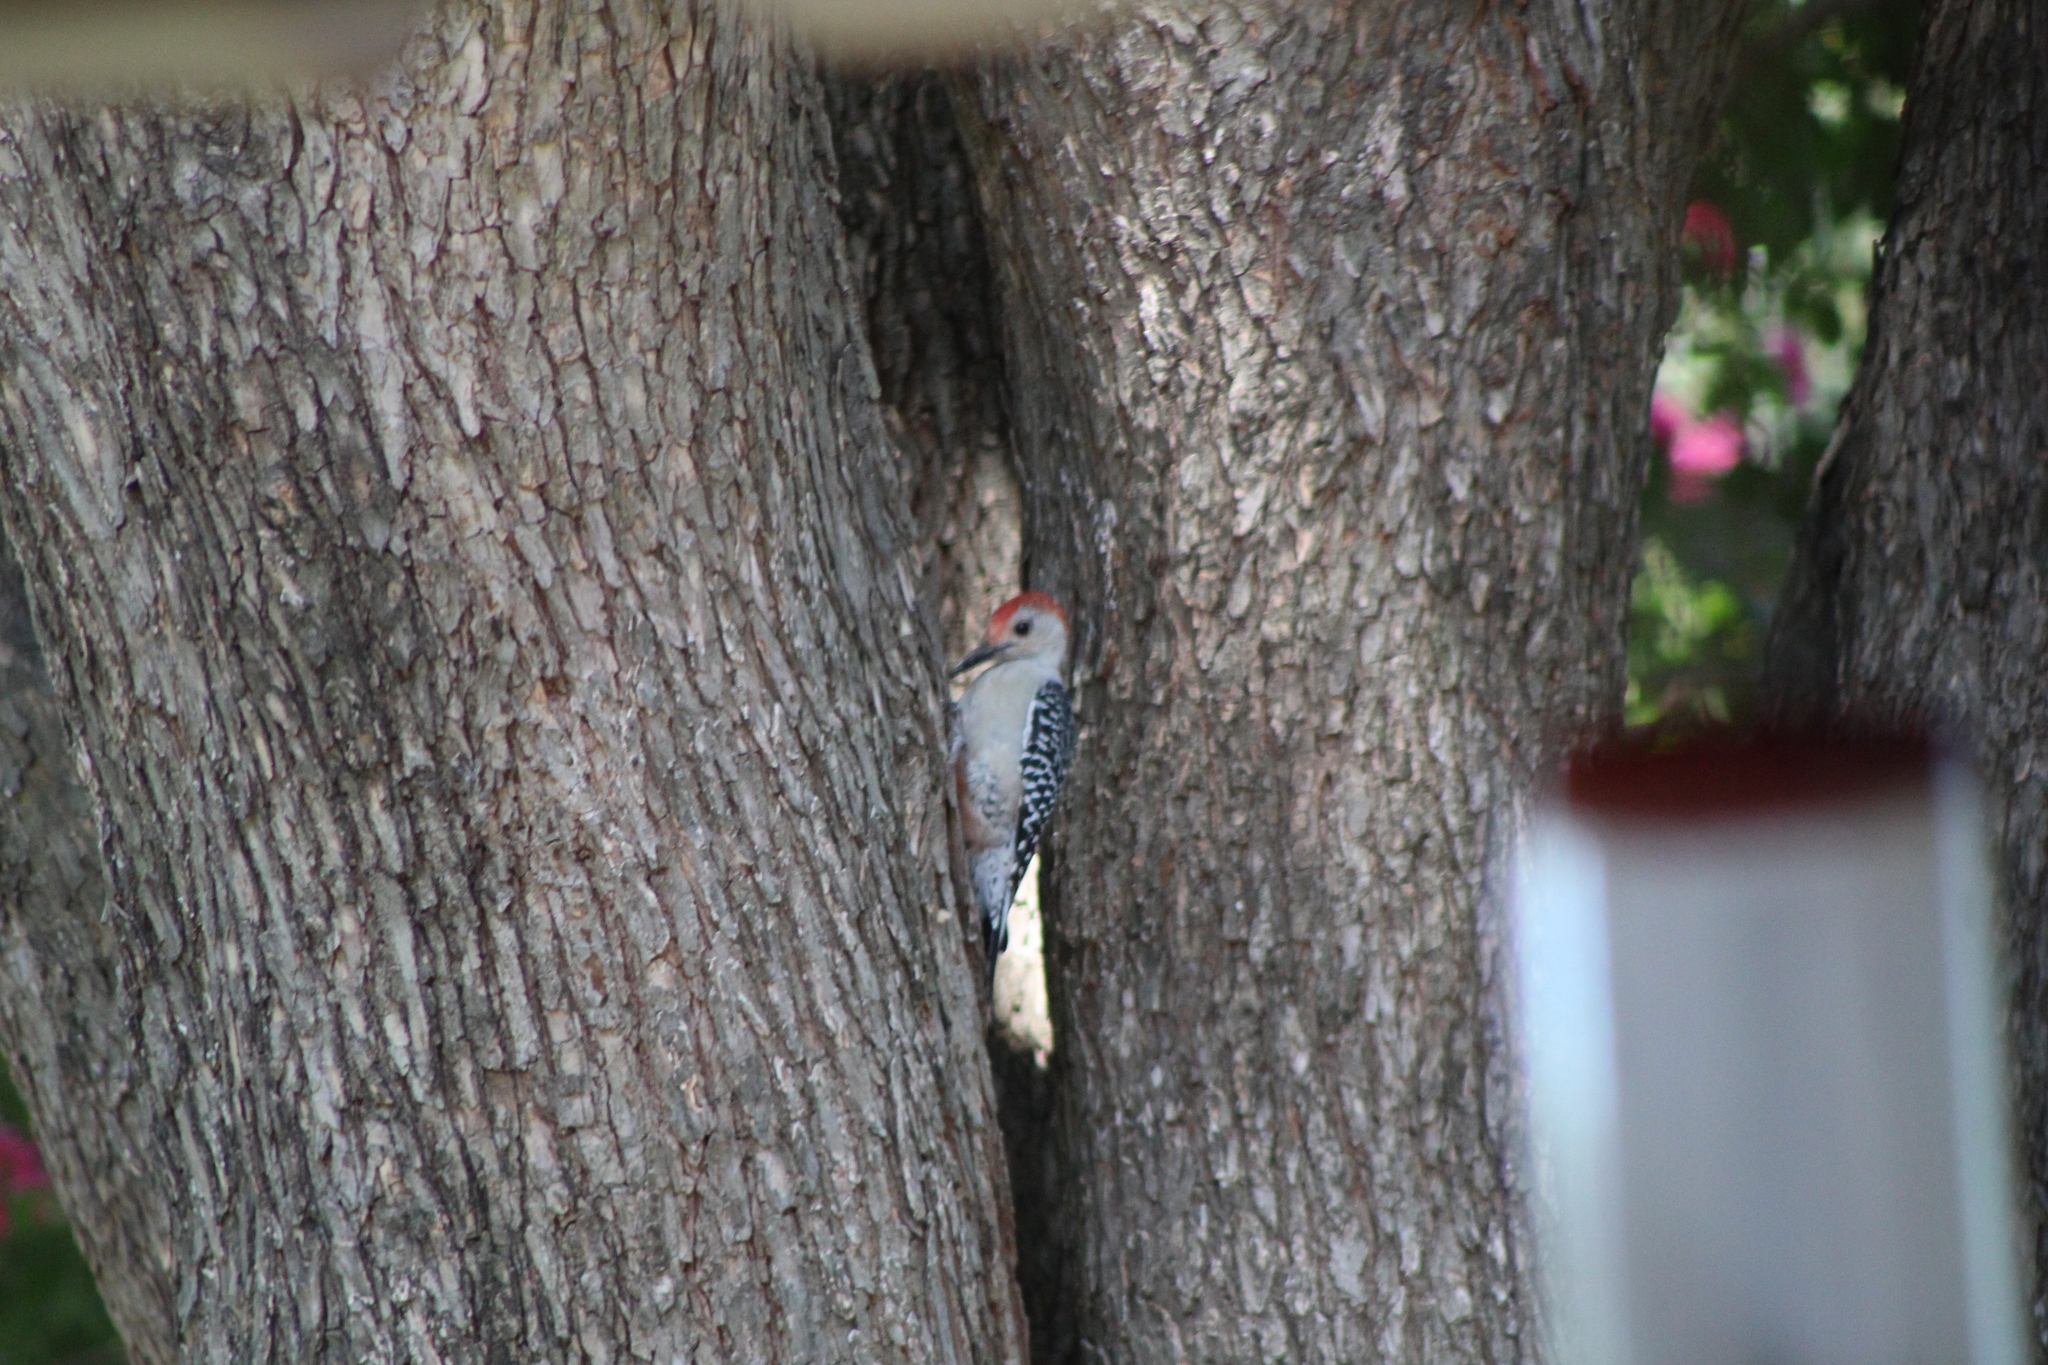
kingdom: Animalia
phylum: Chordata
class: Aves
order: Piciformes
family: Picidae
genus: Melanerpes
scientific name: Melanerpes carolinus
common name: Red-bellied woodpecker
